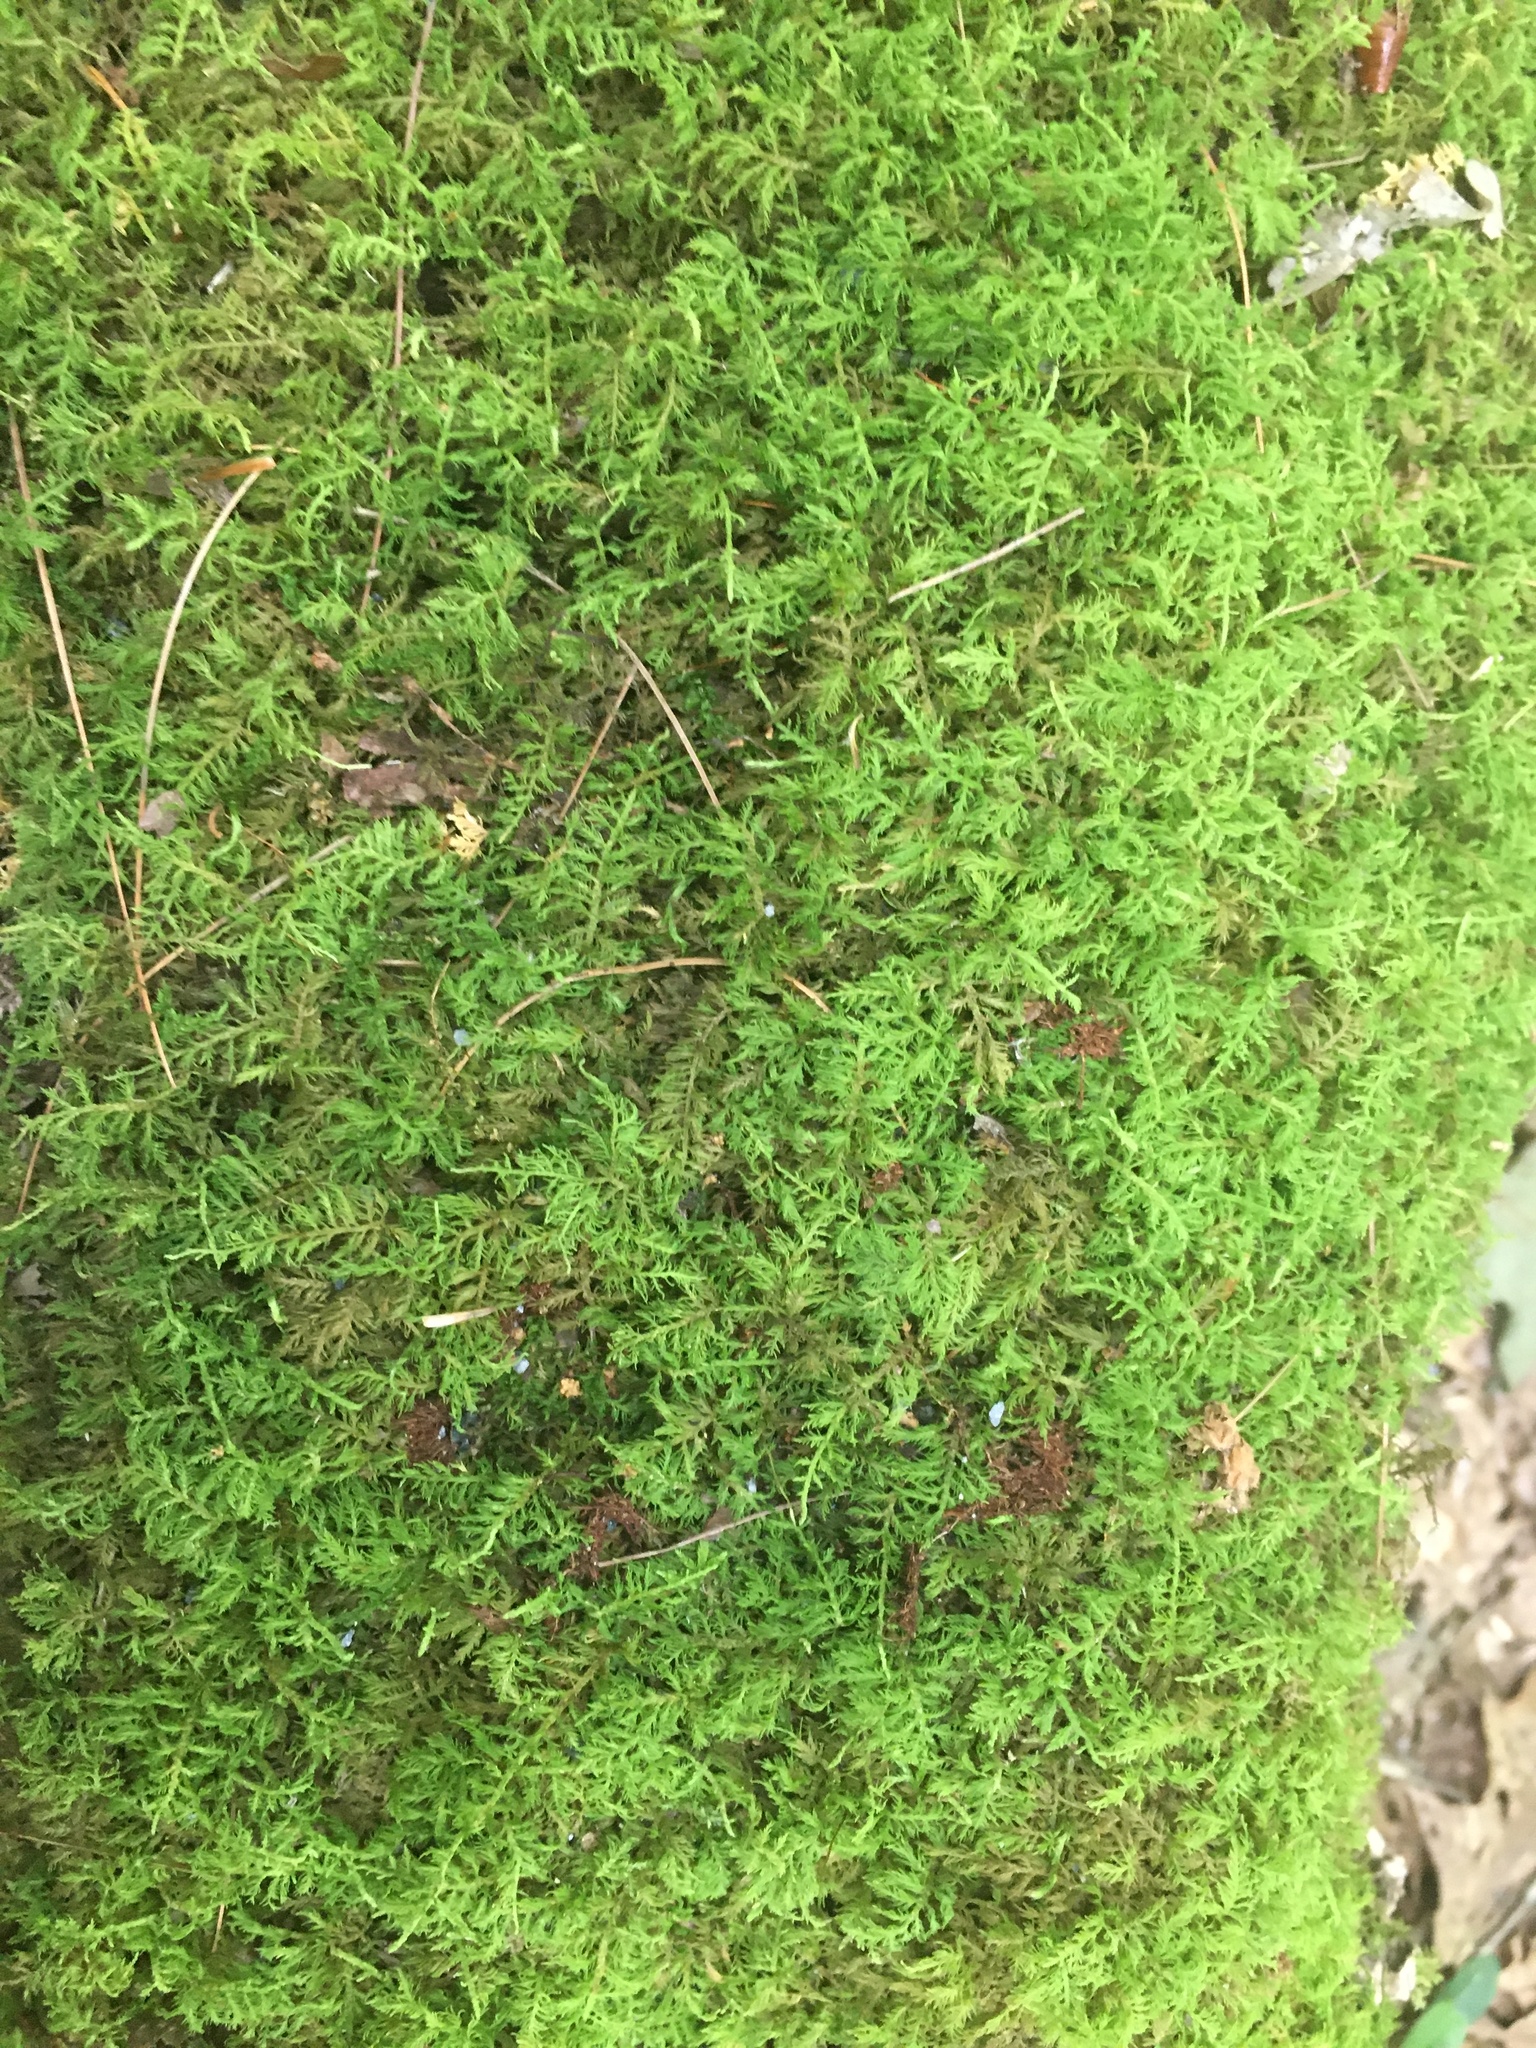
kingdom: Plantae
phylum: Bryophyta
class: Bryopsida
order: Hypnales
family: Thuidiaceae
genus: Thuidium
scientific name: Thuidium delicatulum
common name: Delicate fern moss
